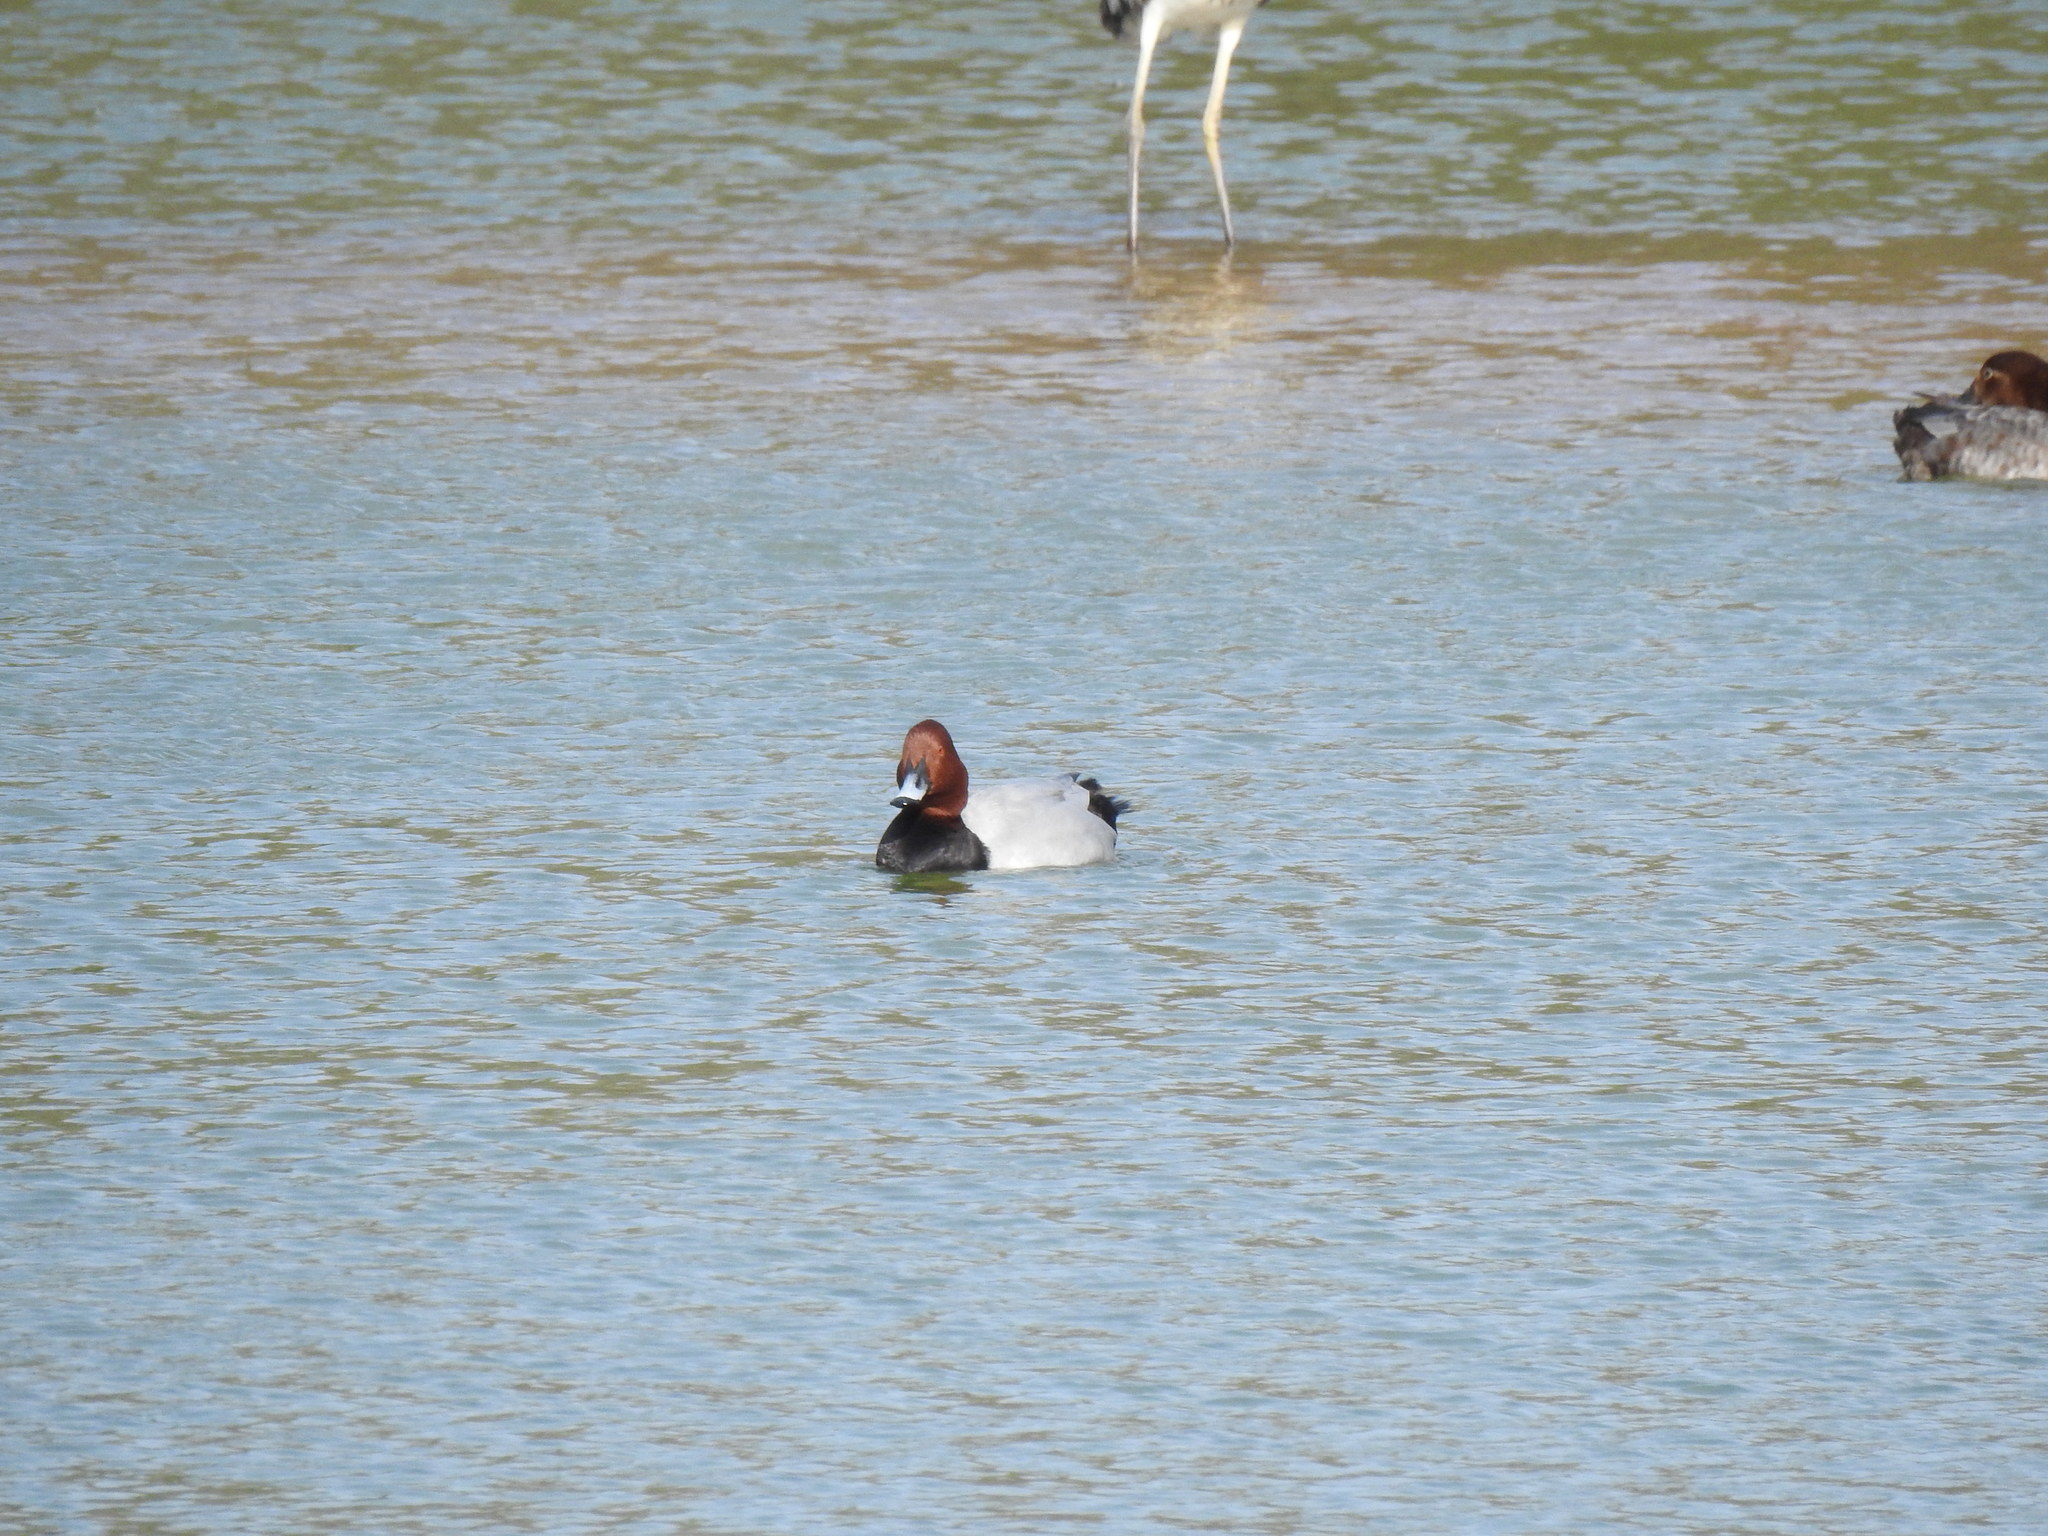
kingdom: Animalia
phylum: Chordata
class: Aves
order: Anseriformes
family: Anatidae
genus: Aythya
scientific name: Aythya ferina
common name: Common pochard
